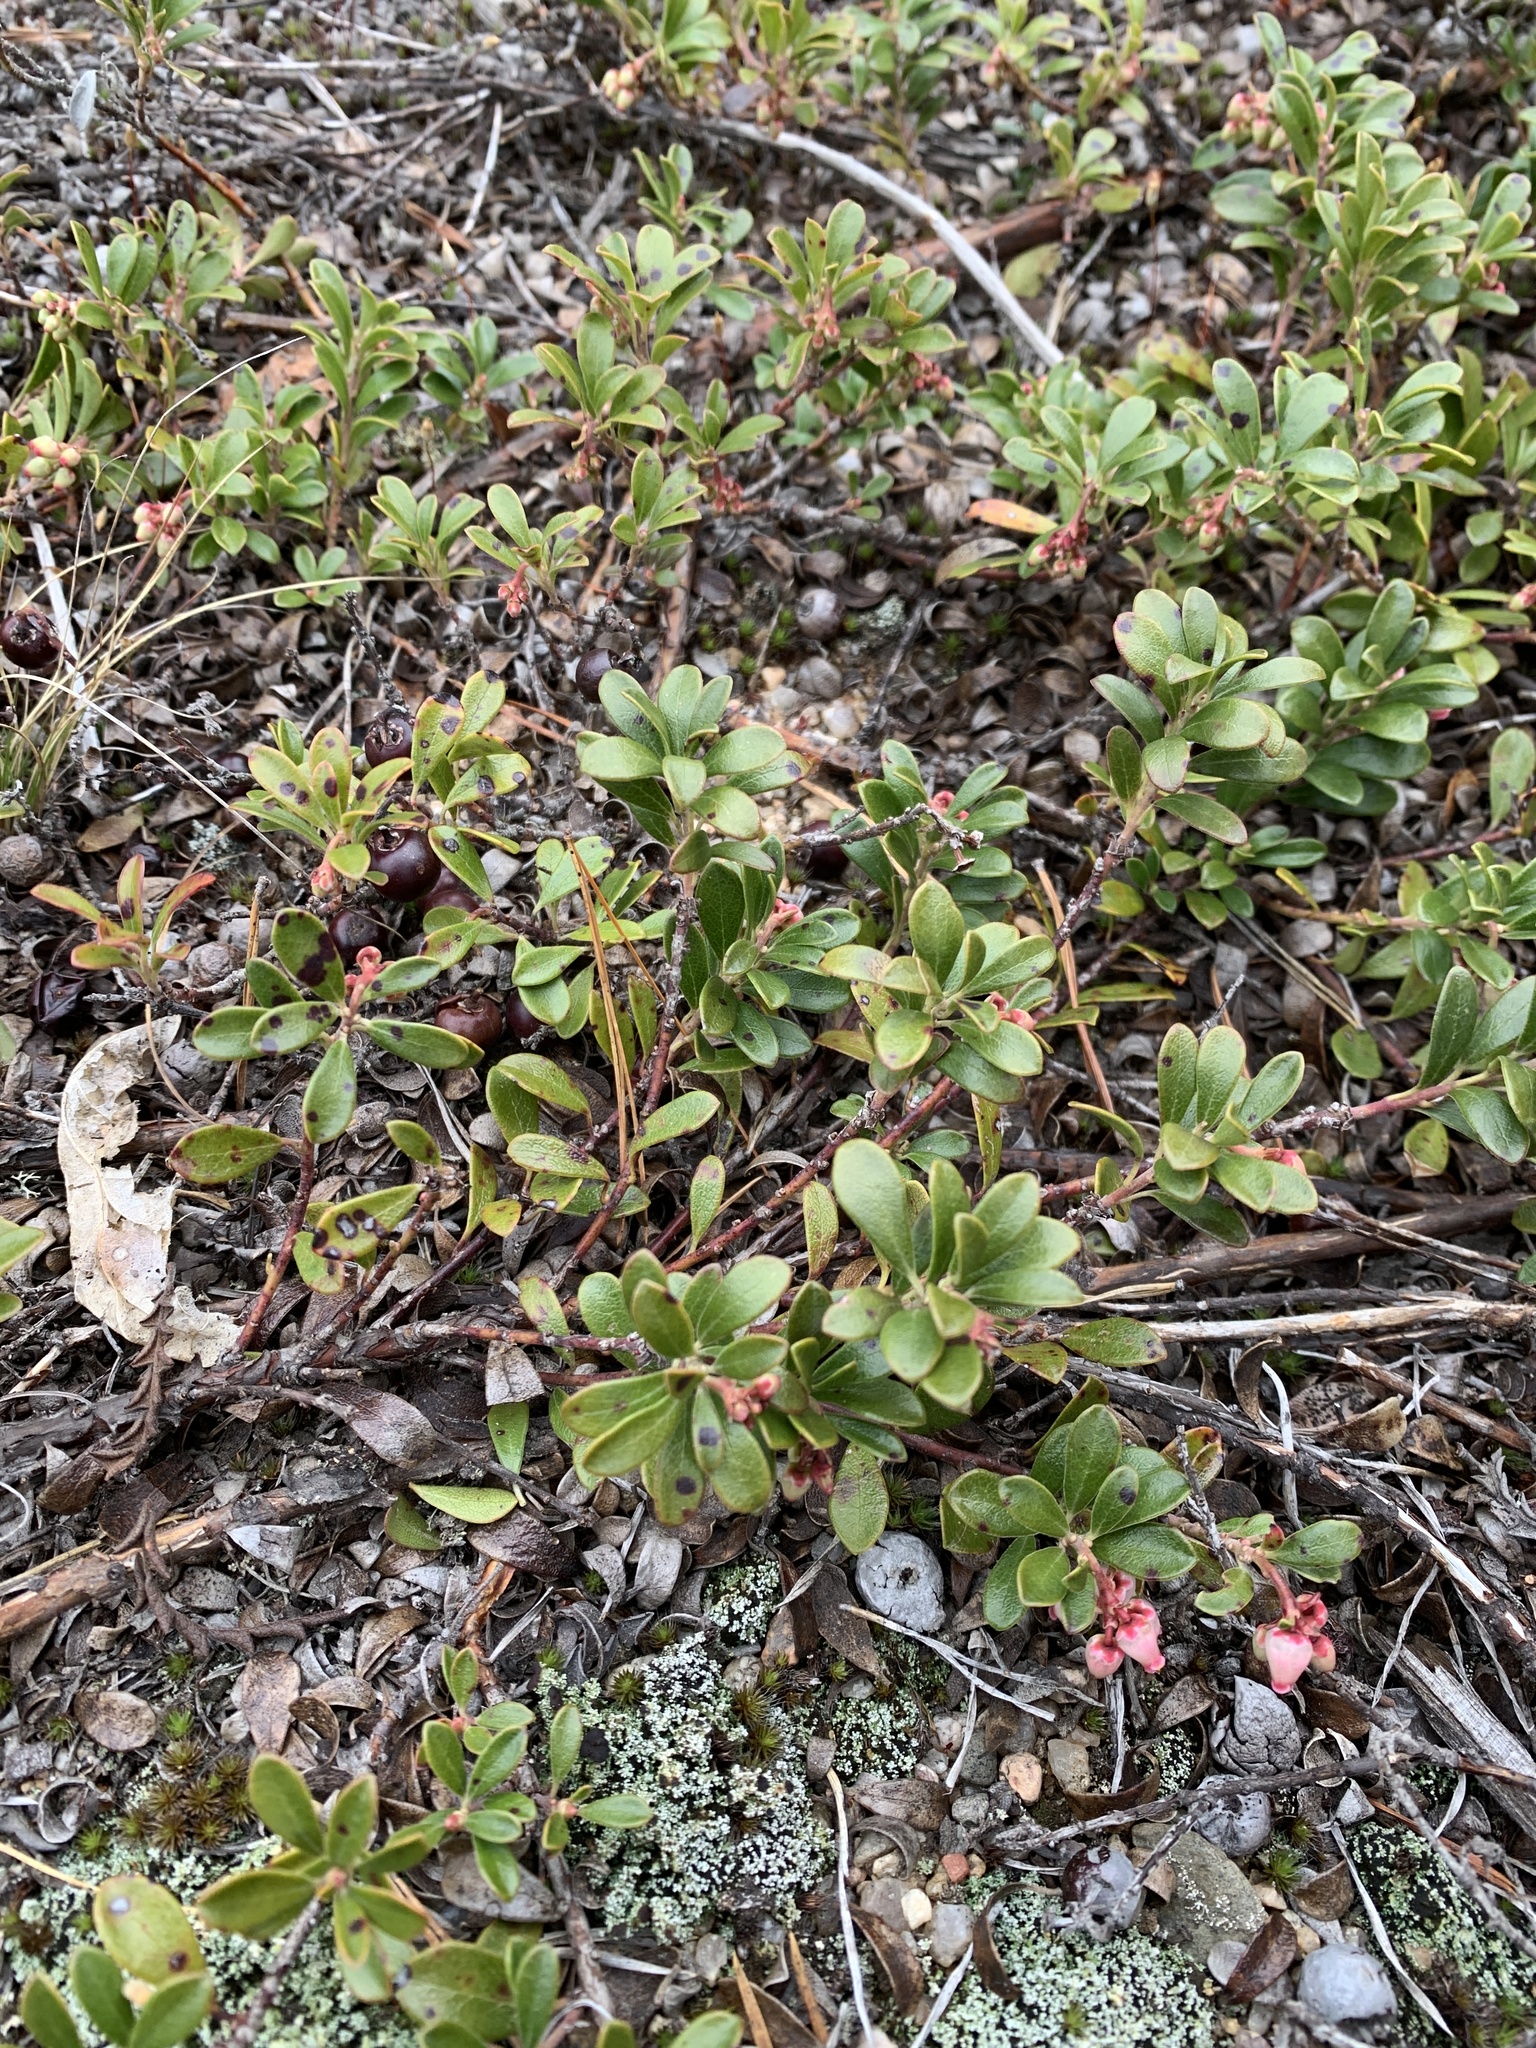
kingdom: Plantae
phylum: Tracheophyta
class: Magnoliopsida
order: Ericales
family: Ericaceae
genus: Arctostaphylos
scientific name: Arctostaphylos uva-ursi
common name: Bearberry
